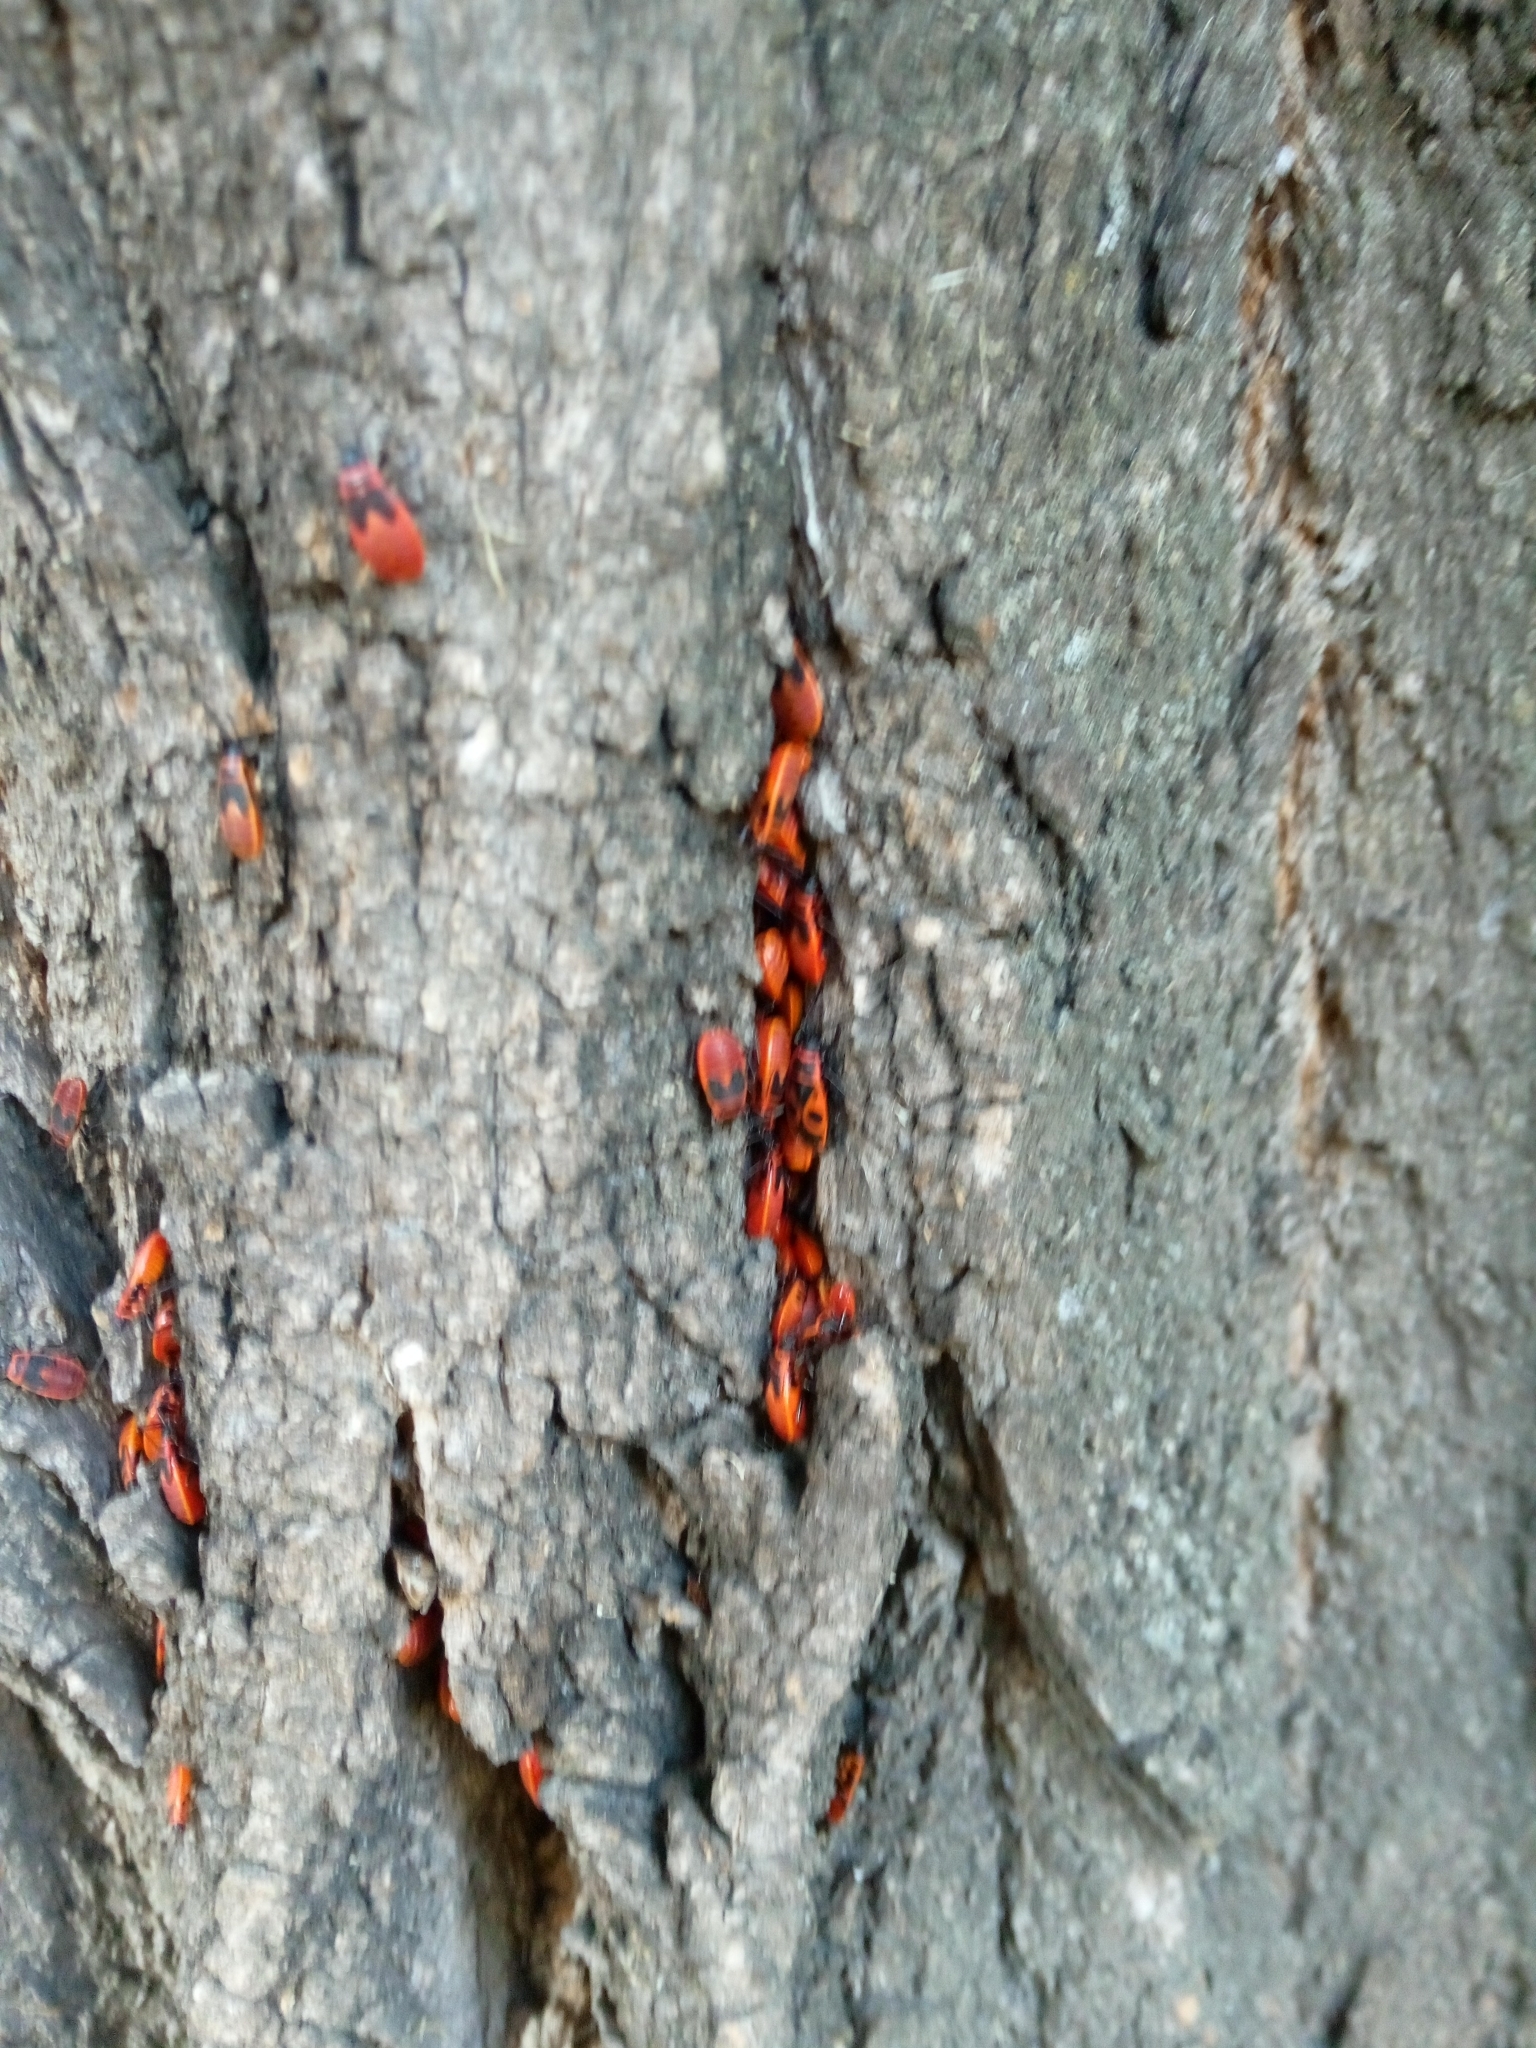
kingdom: Animalia
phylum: Arthropoda
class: Insecta
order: Hemiptera
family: Pyrrhocoridae
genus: Pyrrhocoris
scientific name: Pyrrhocoris apterus
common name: Firebug
